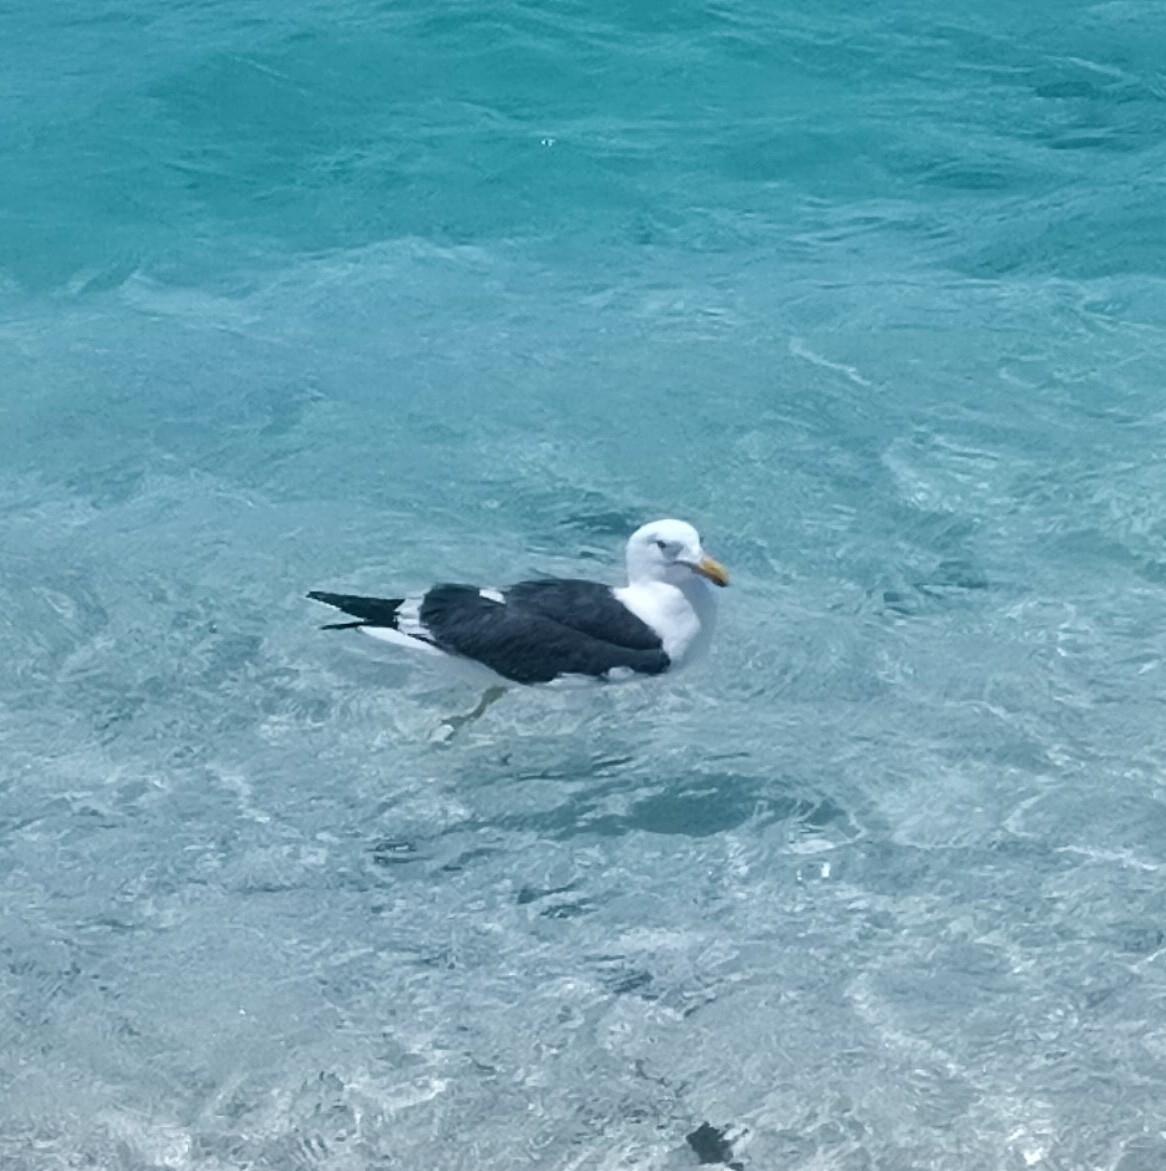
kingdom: Animalia
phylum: Chordata
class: Aves
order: Charadriiformes
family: Laridae
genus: Larus
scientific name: Larus livens
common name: Yellow-footed gull
